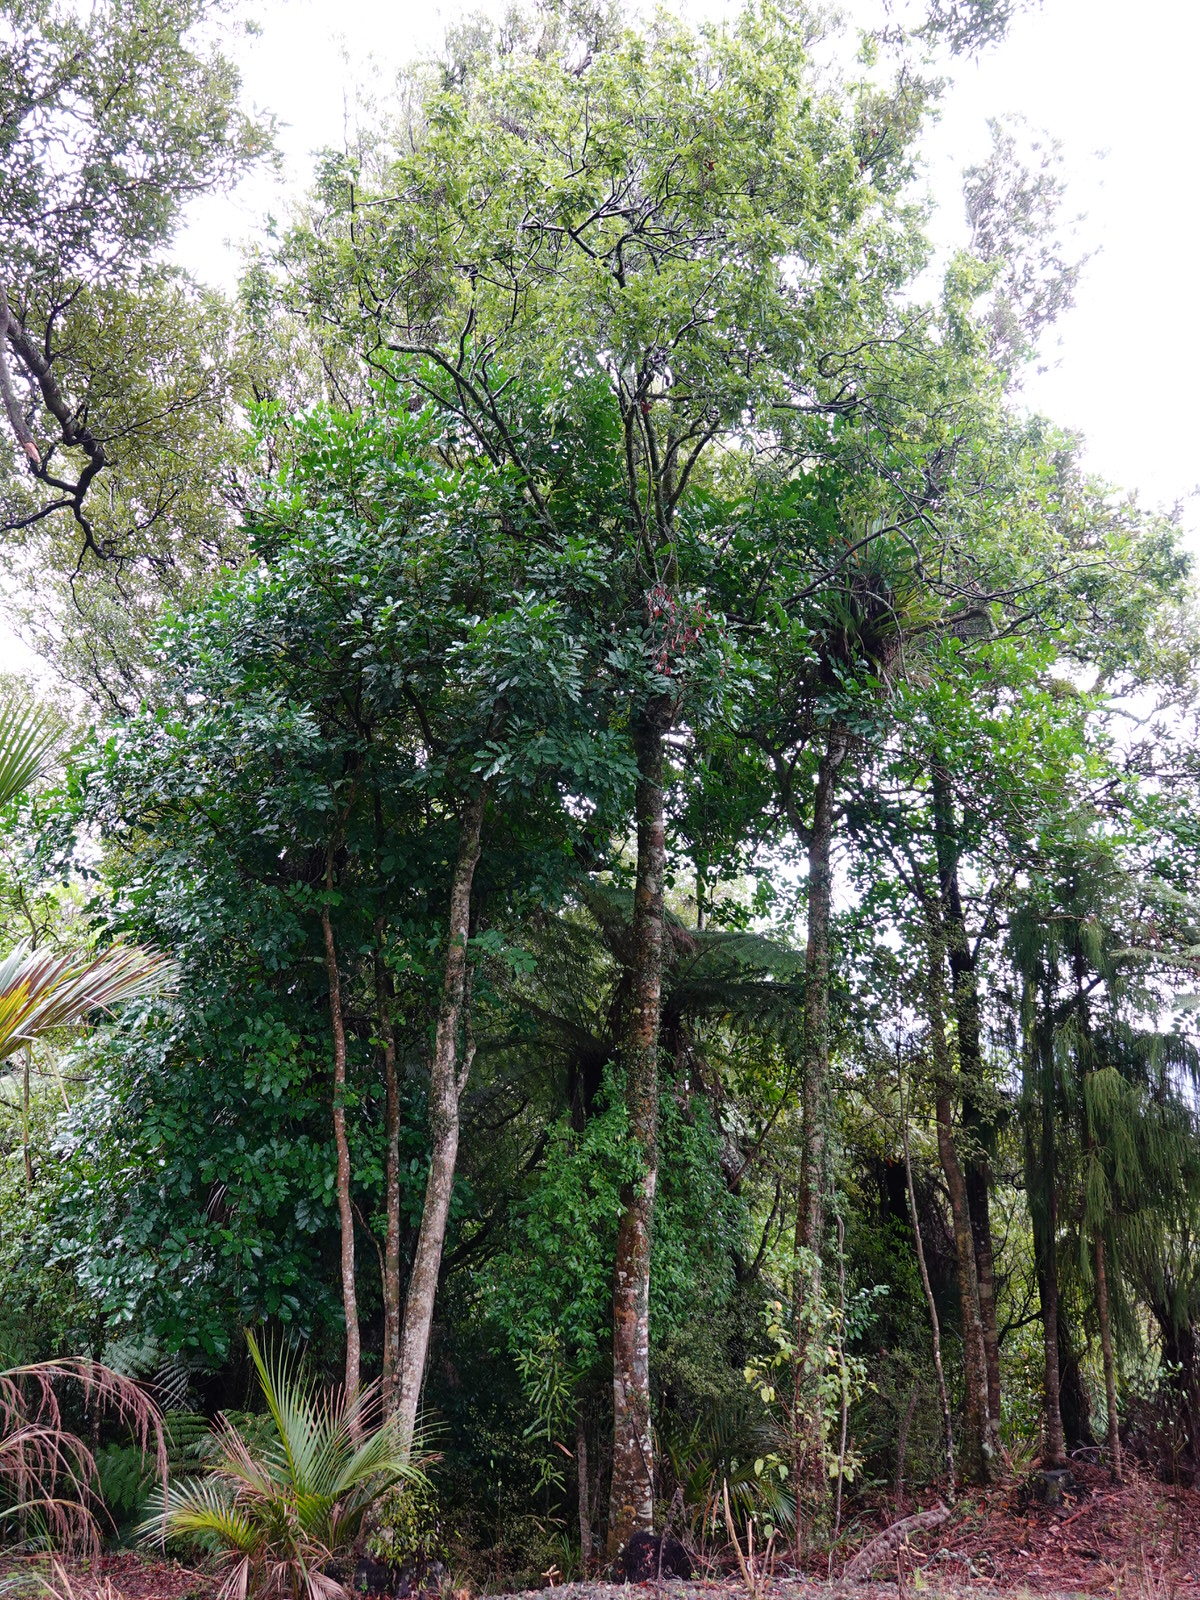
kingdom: Plantae
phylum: Tracheophyta
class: Magnoliopsida
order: Sapindales
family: Sapindaceae
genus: Alectryon
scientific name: Alectryon excelsus
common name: Three kings titoki
